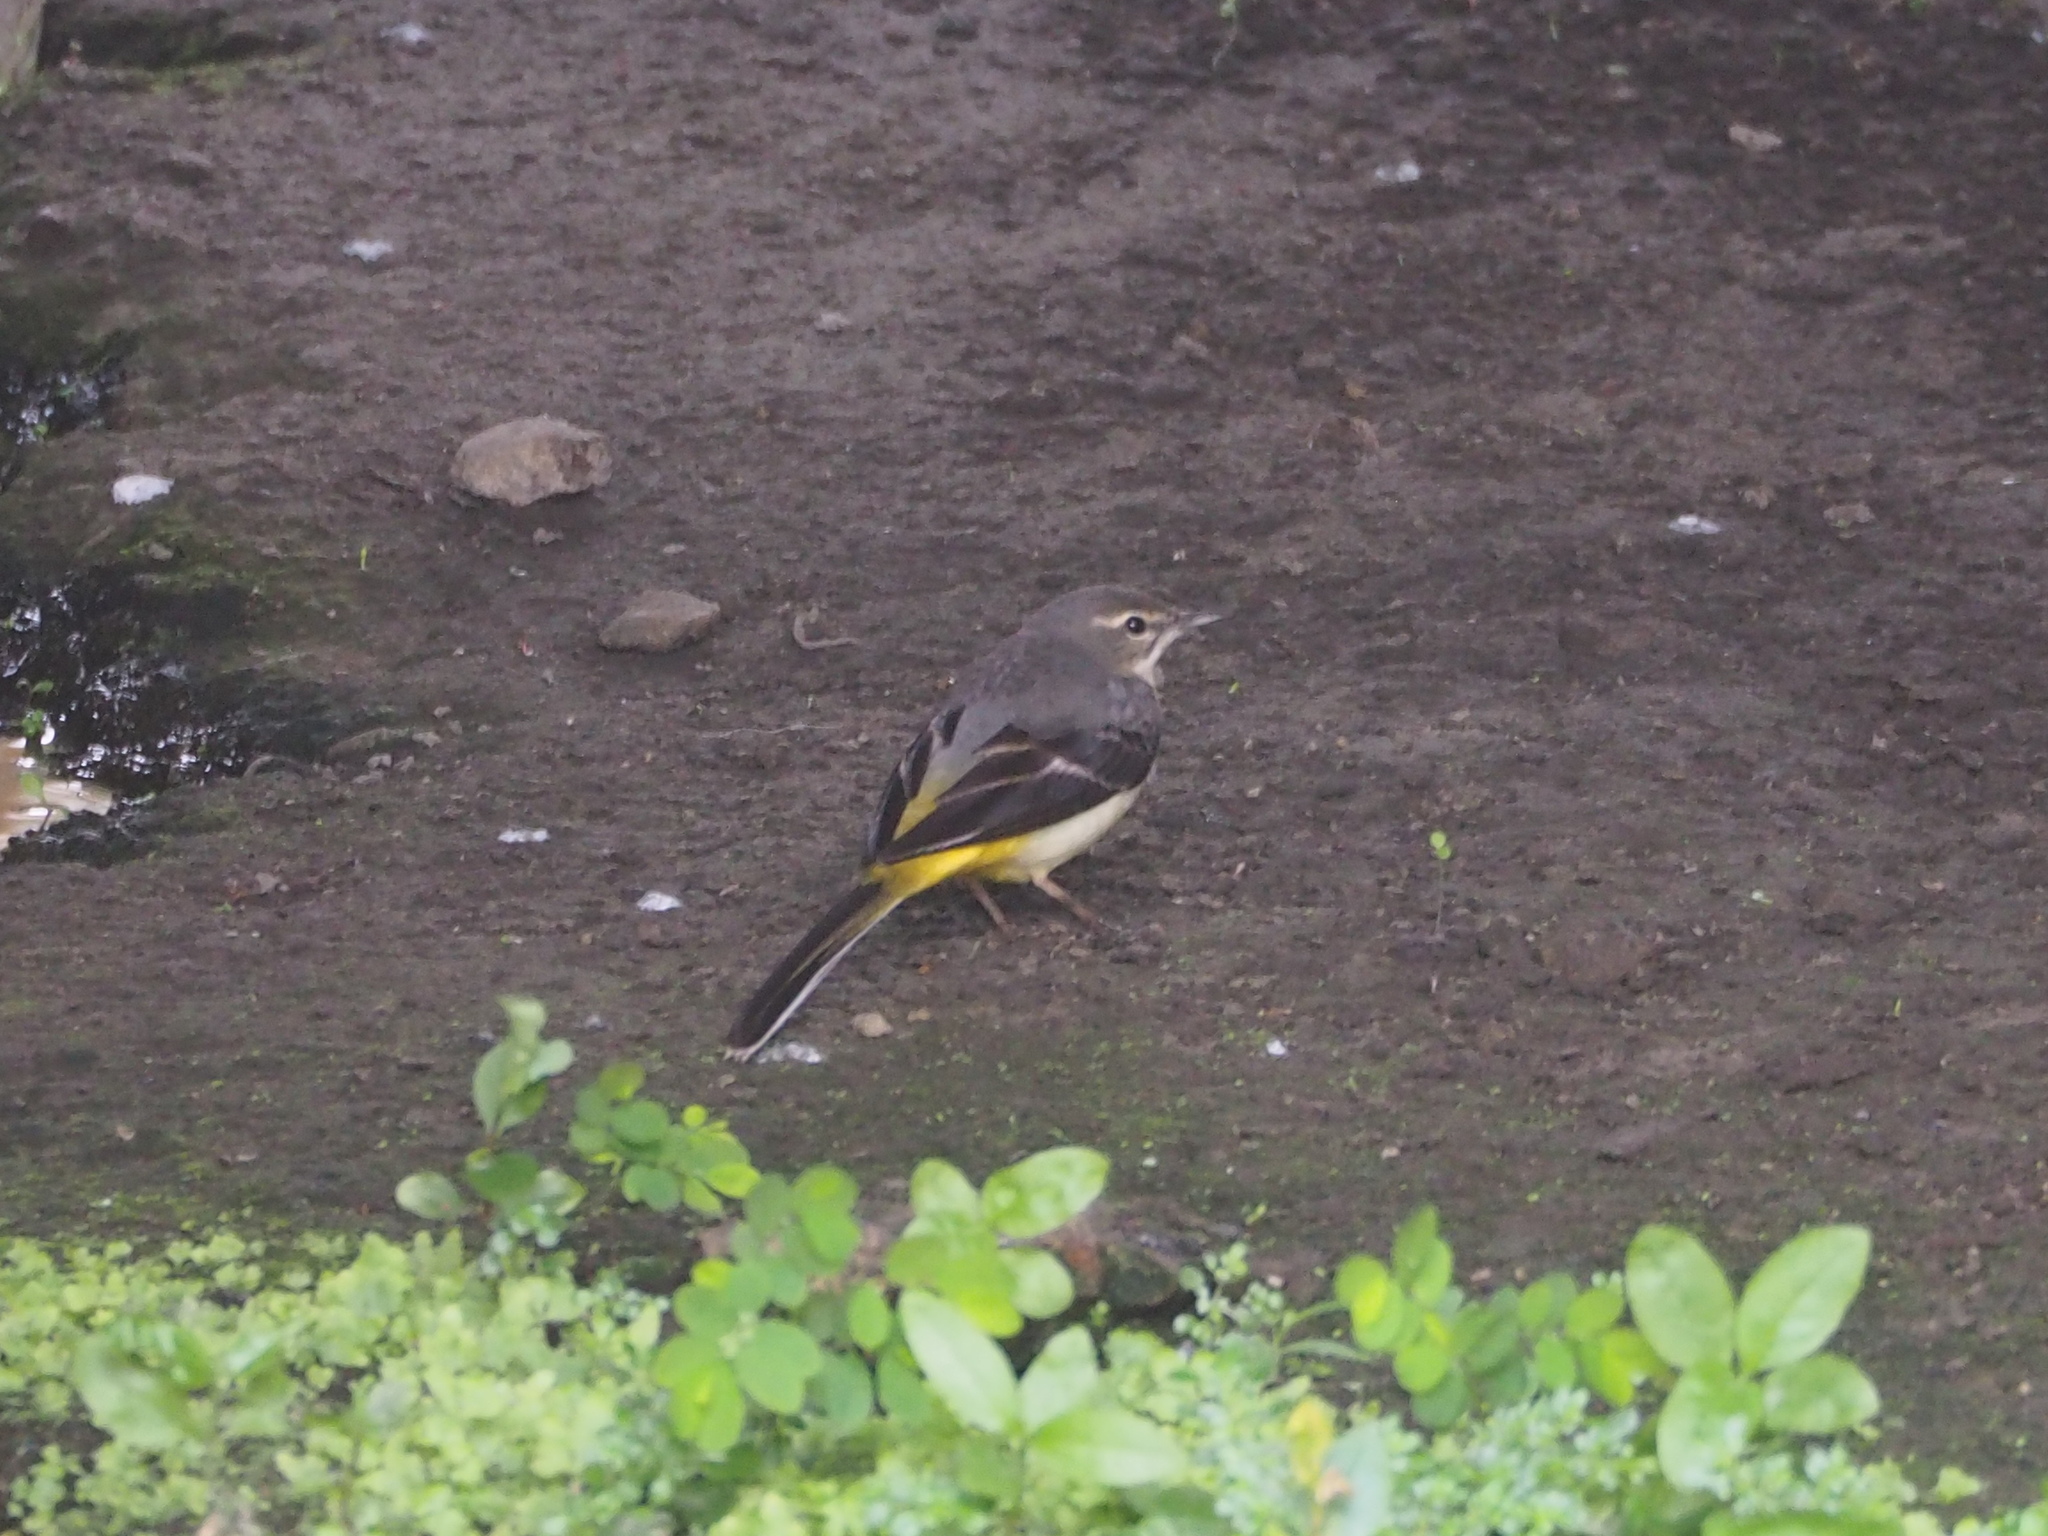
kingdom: Animalia
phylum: Chordata
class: Aves
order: Passeriformes
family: Motacillidae
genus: Motacilla
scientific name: Motacilla cinerea
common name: Grey wagtail
